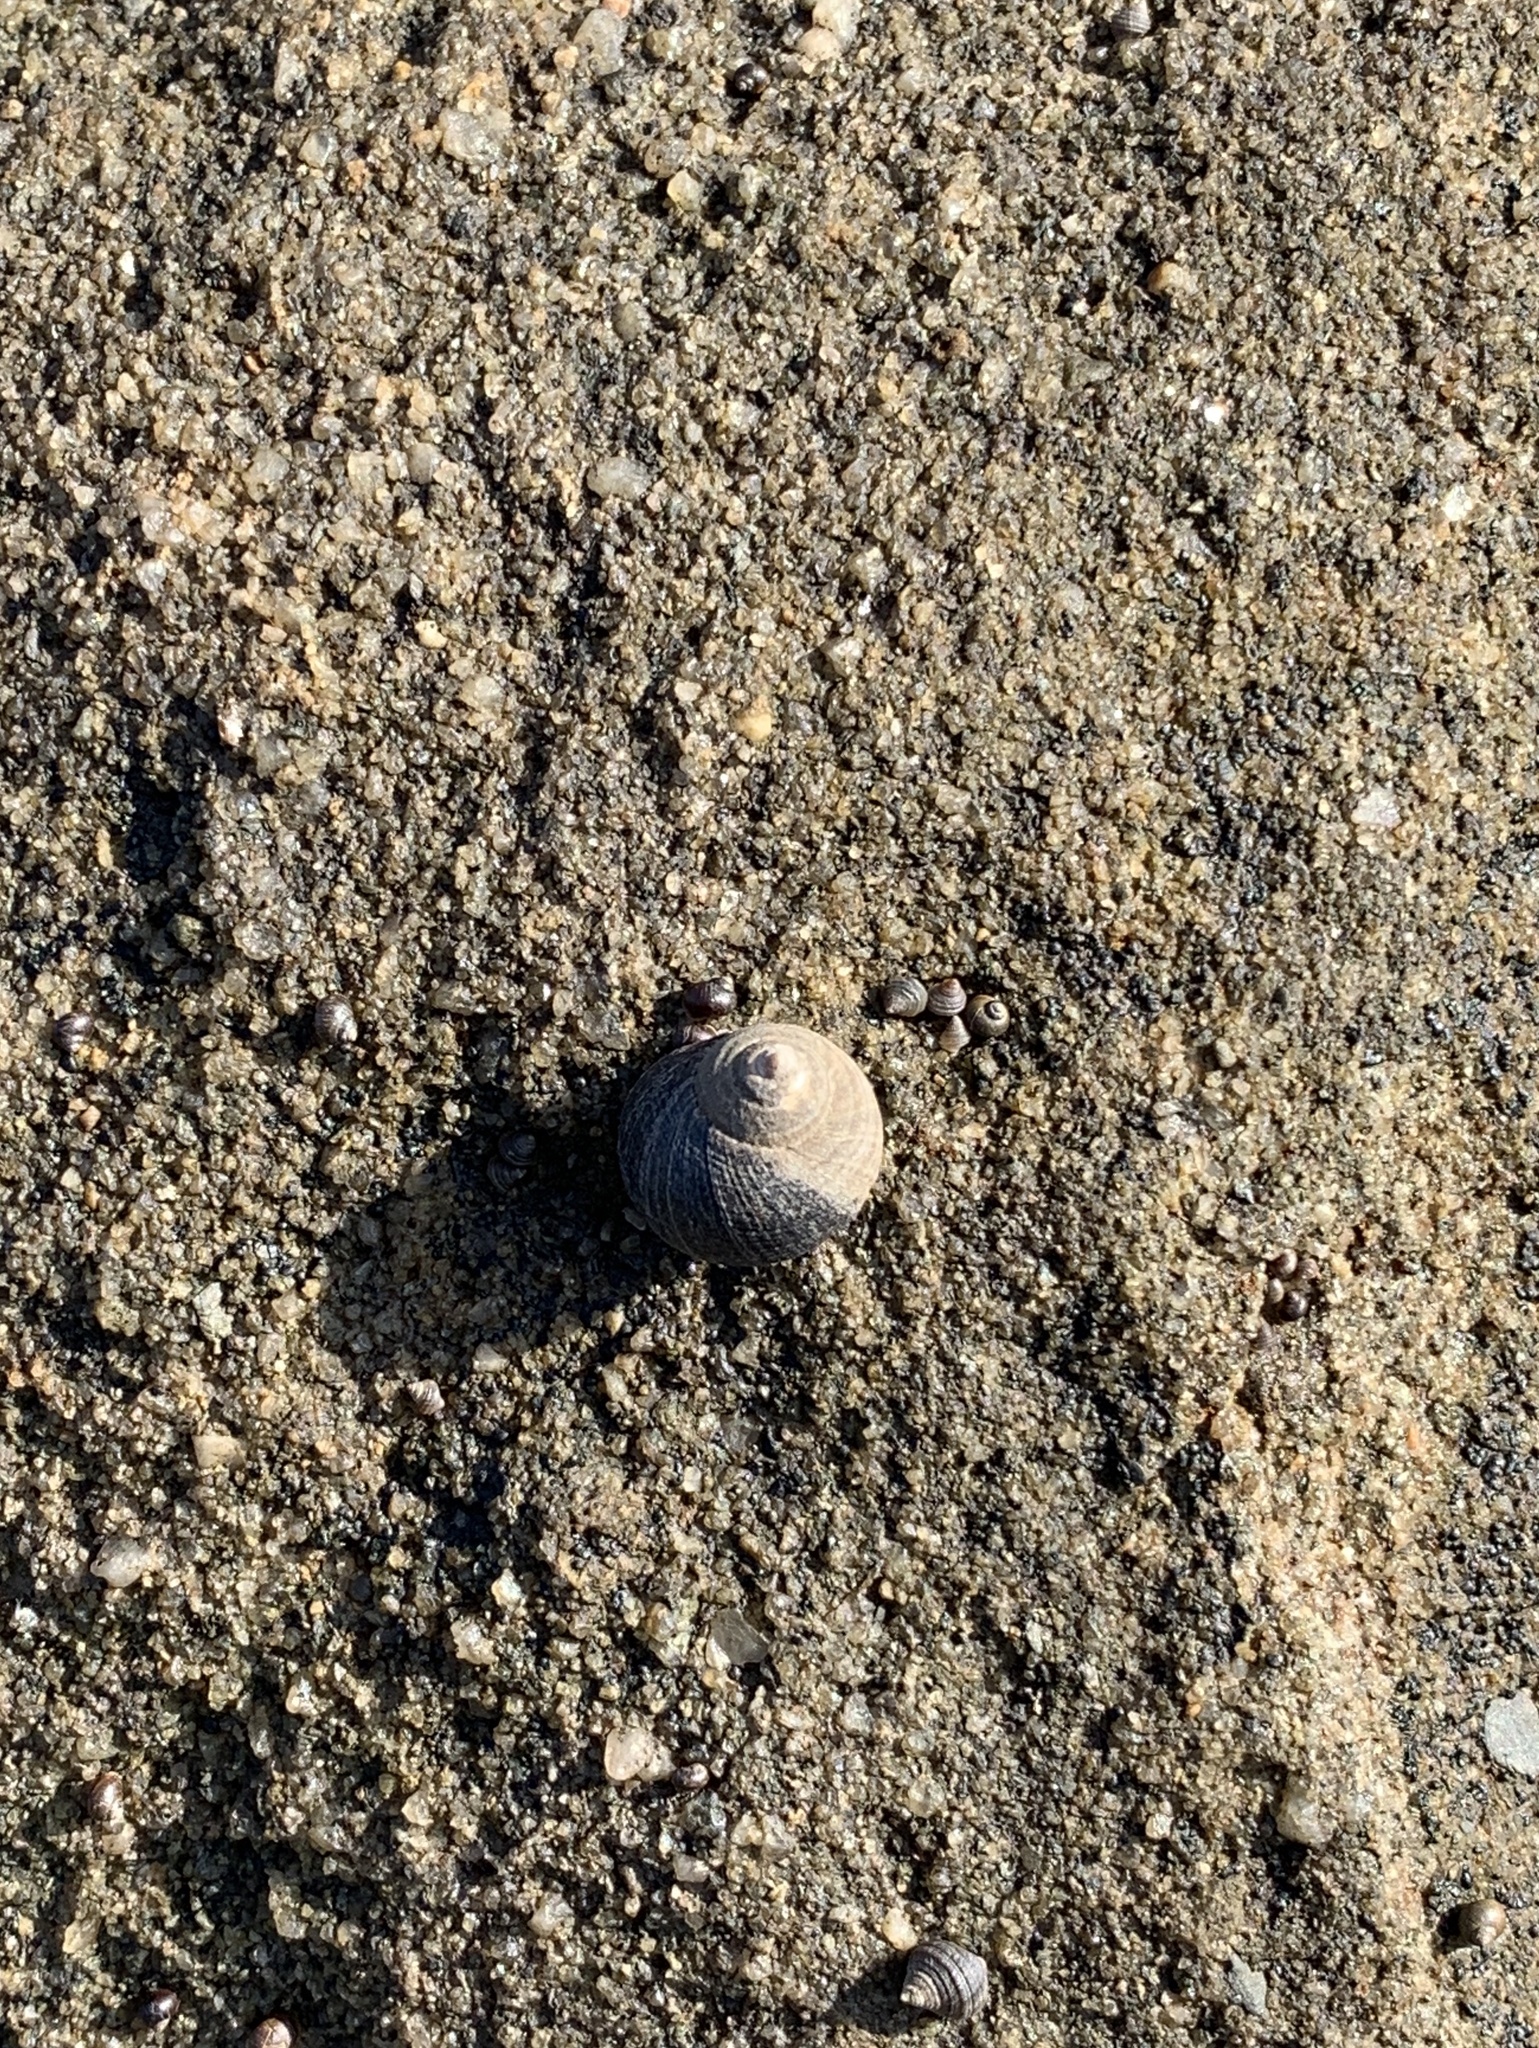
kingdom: Animalia
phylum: Mollusca
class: Gastropoda
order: Littorinimorpha
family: Littorinidae
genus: Littorina
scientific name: Littorina littorea
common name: Common periwinkle
